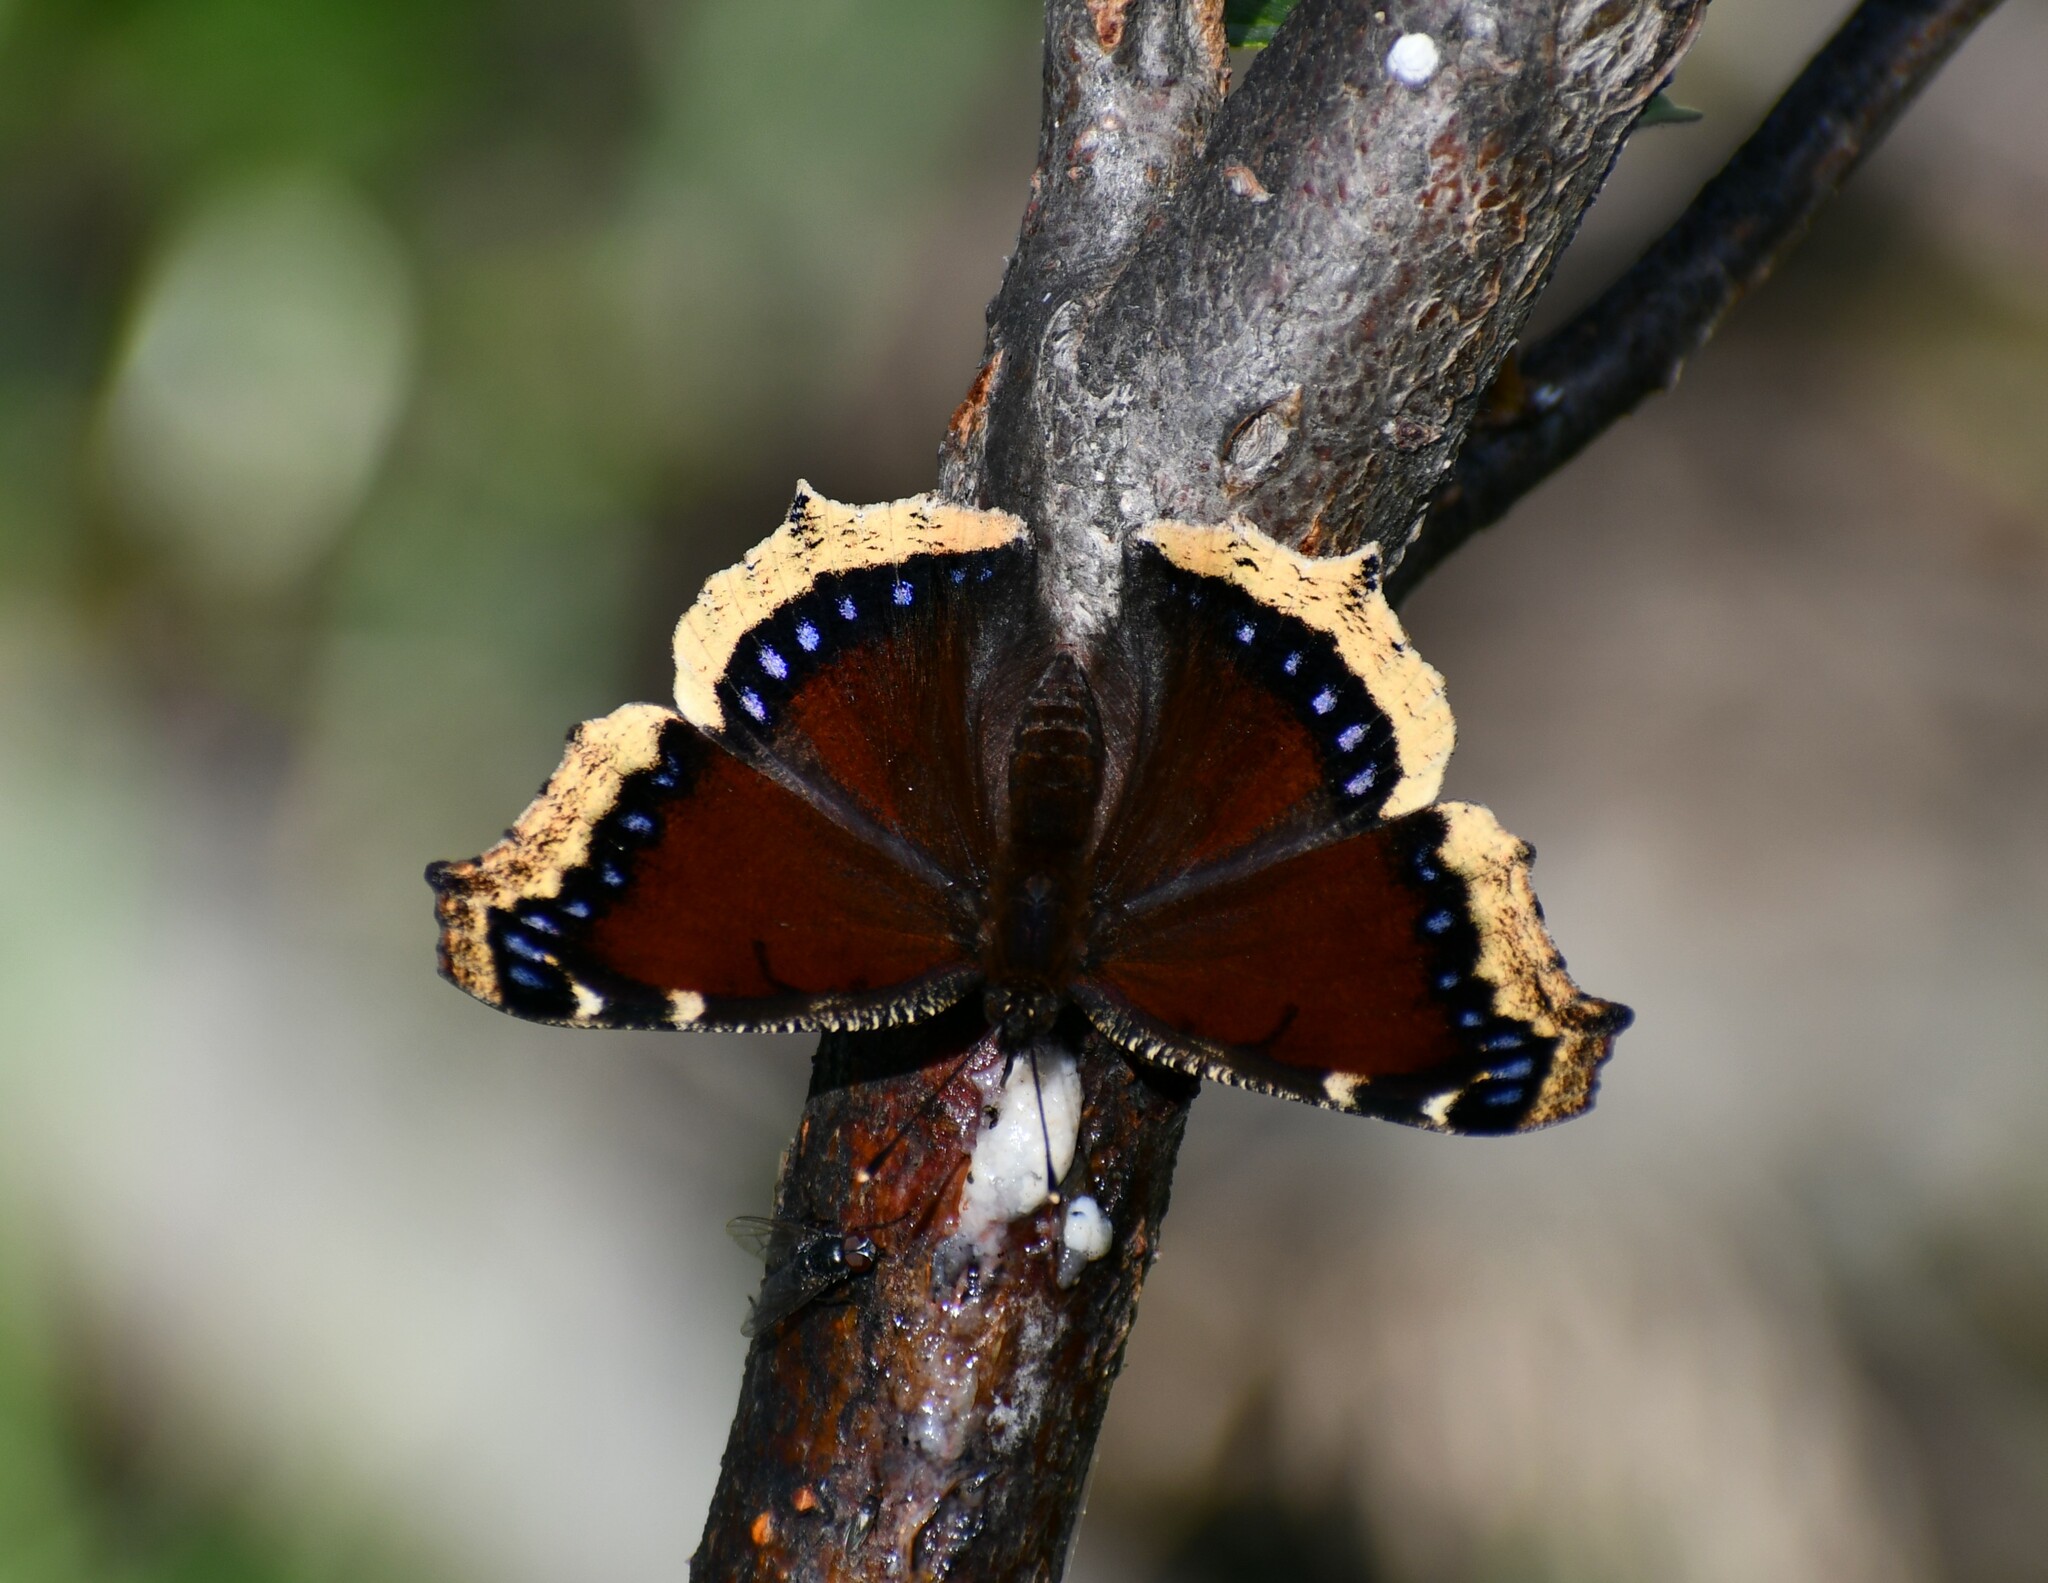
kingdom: Animalia
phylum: Arthropoda
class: Insecta
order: Lepidoptera
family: Nymphalidae
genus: Nymphalis
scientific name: Nymphalis antiopa
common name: Camberwell beauty
